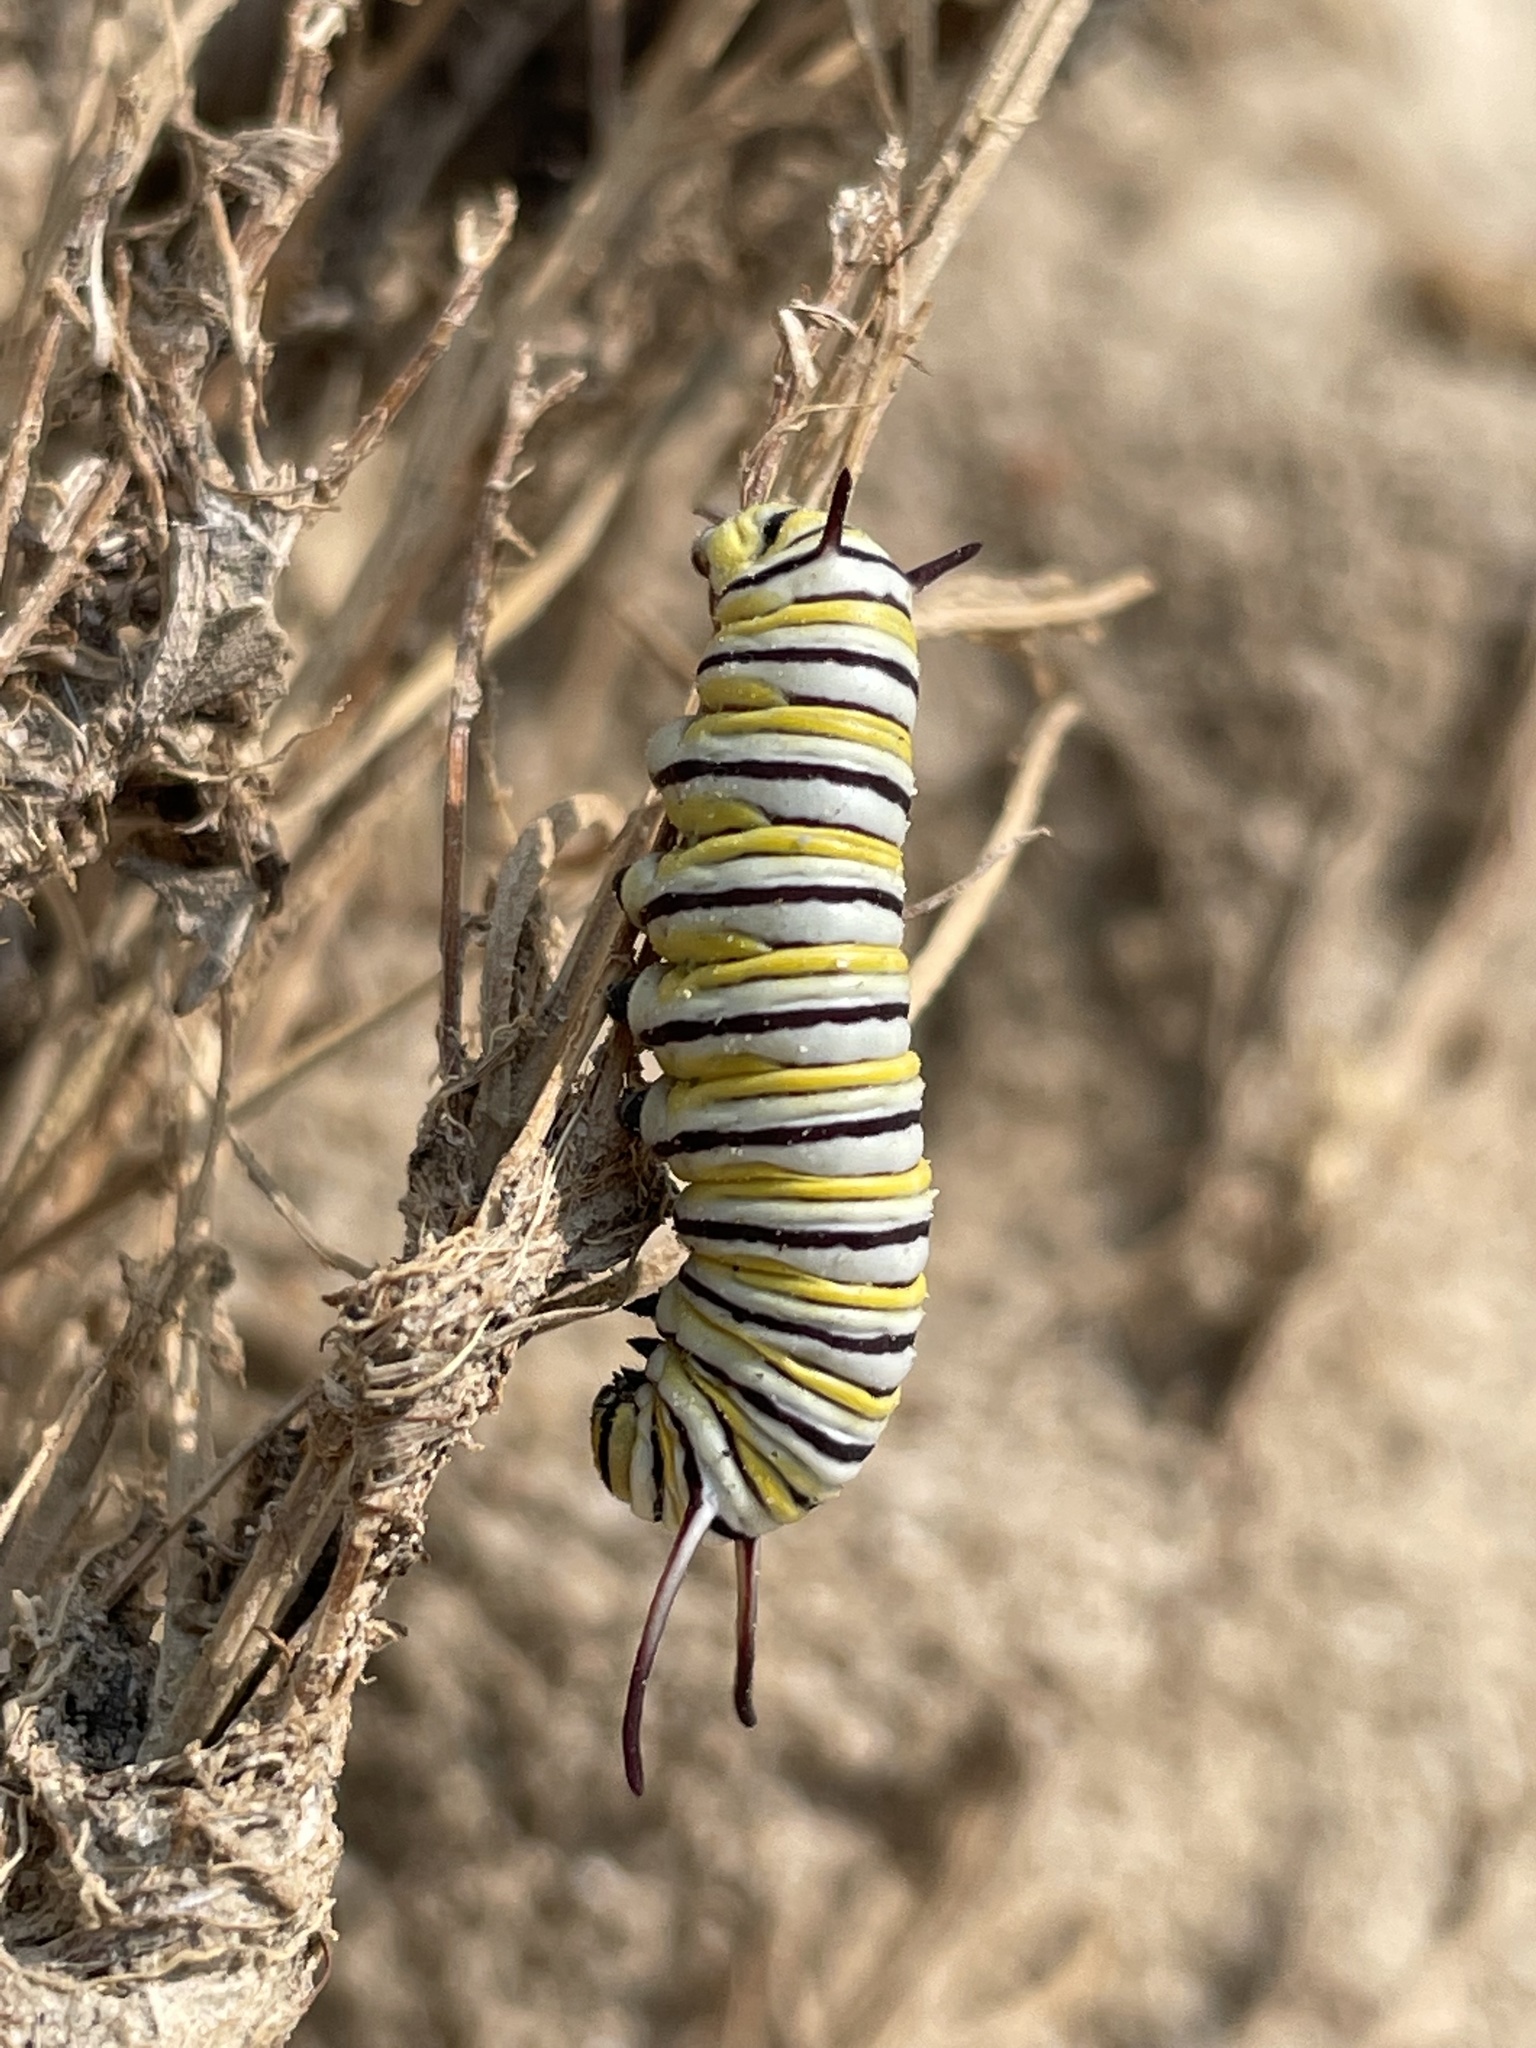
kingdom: Animalia
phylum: Arthropoda
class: Insecta
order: Lepidoptera
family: Nymphalidae
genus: Danaus
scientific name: Danaus plexippus
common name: Monarch
